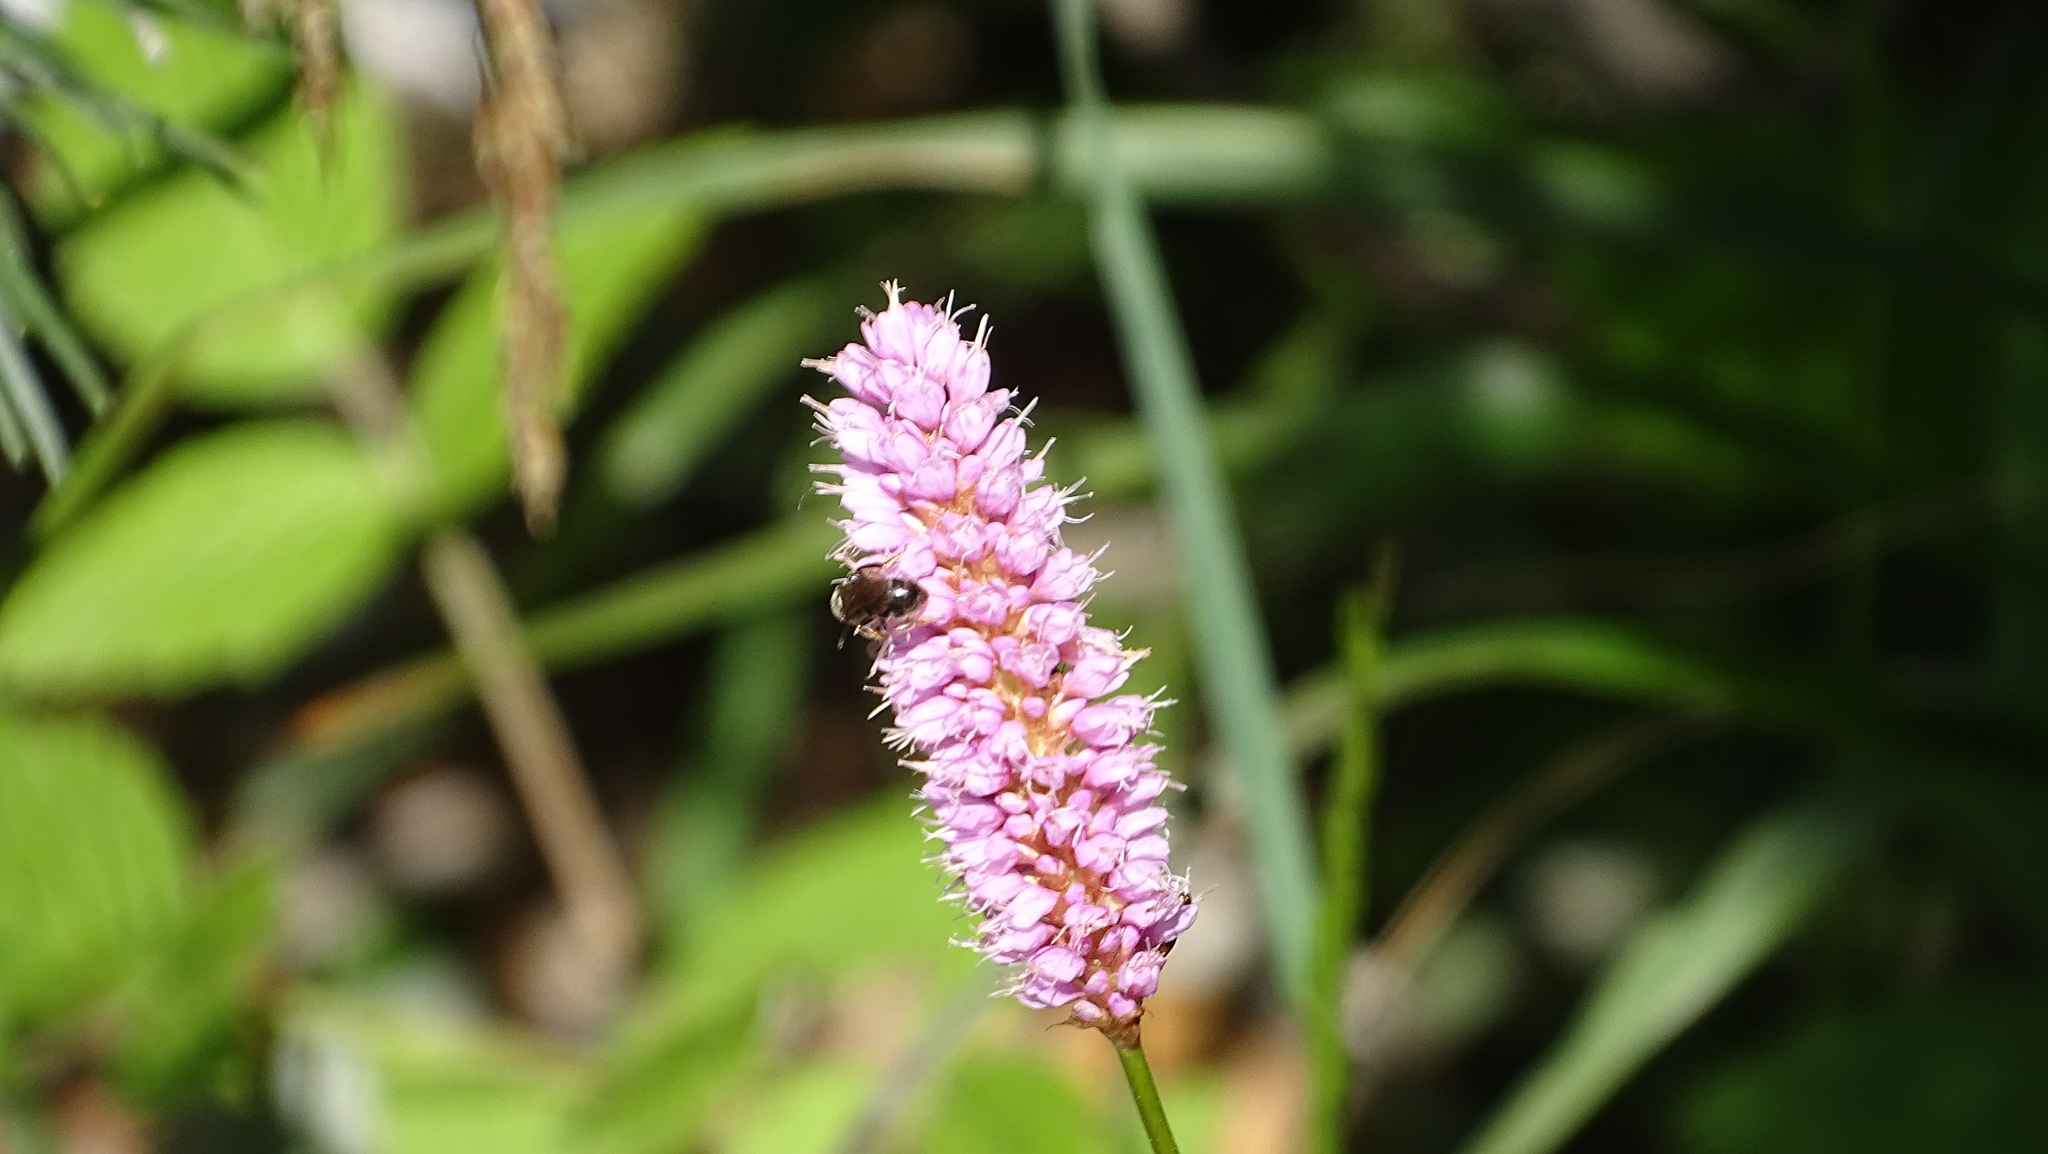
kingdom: Plantae
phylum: Tracheophyta
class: Magnoliopsida
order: Caryophyllales
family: Polygonaceae
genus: Bistorta
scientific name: Bistorta officinalis
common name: Common bistort
